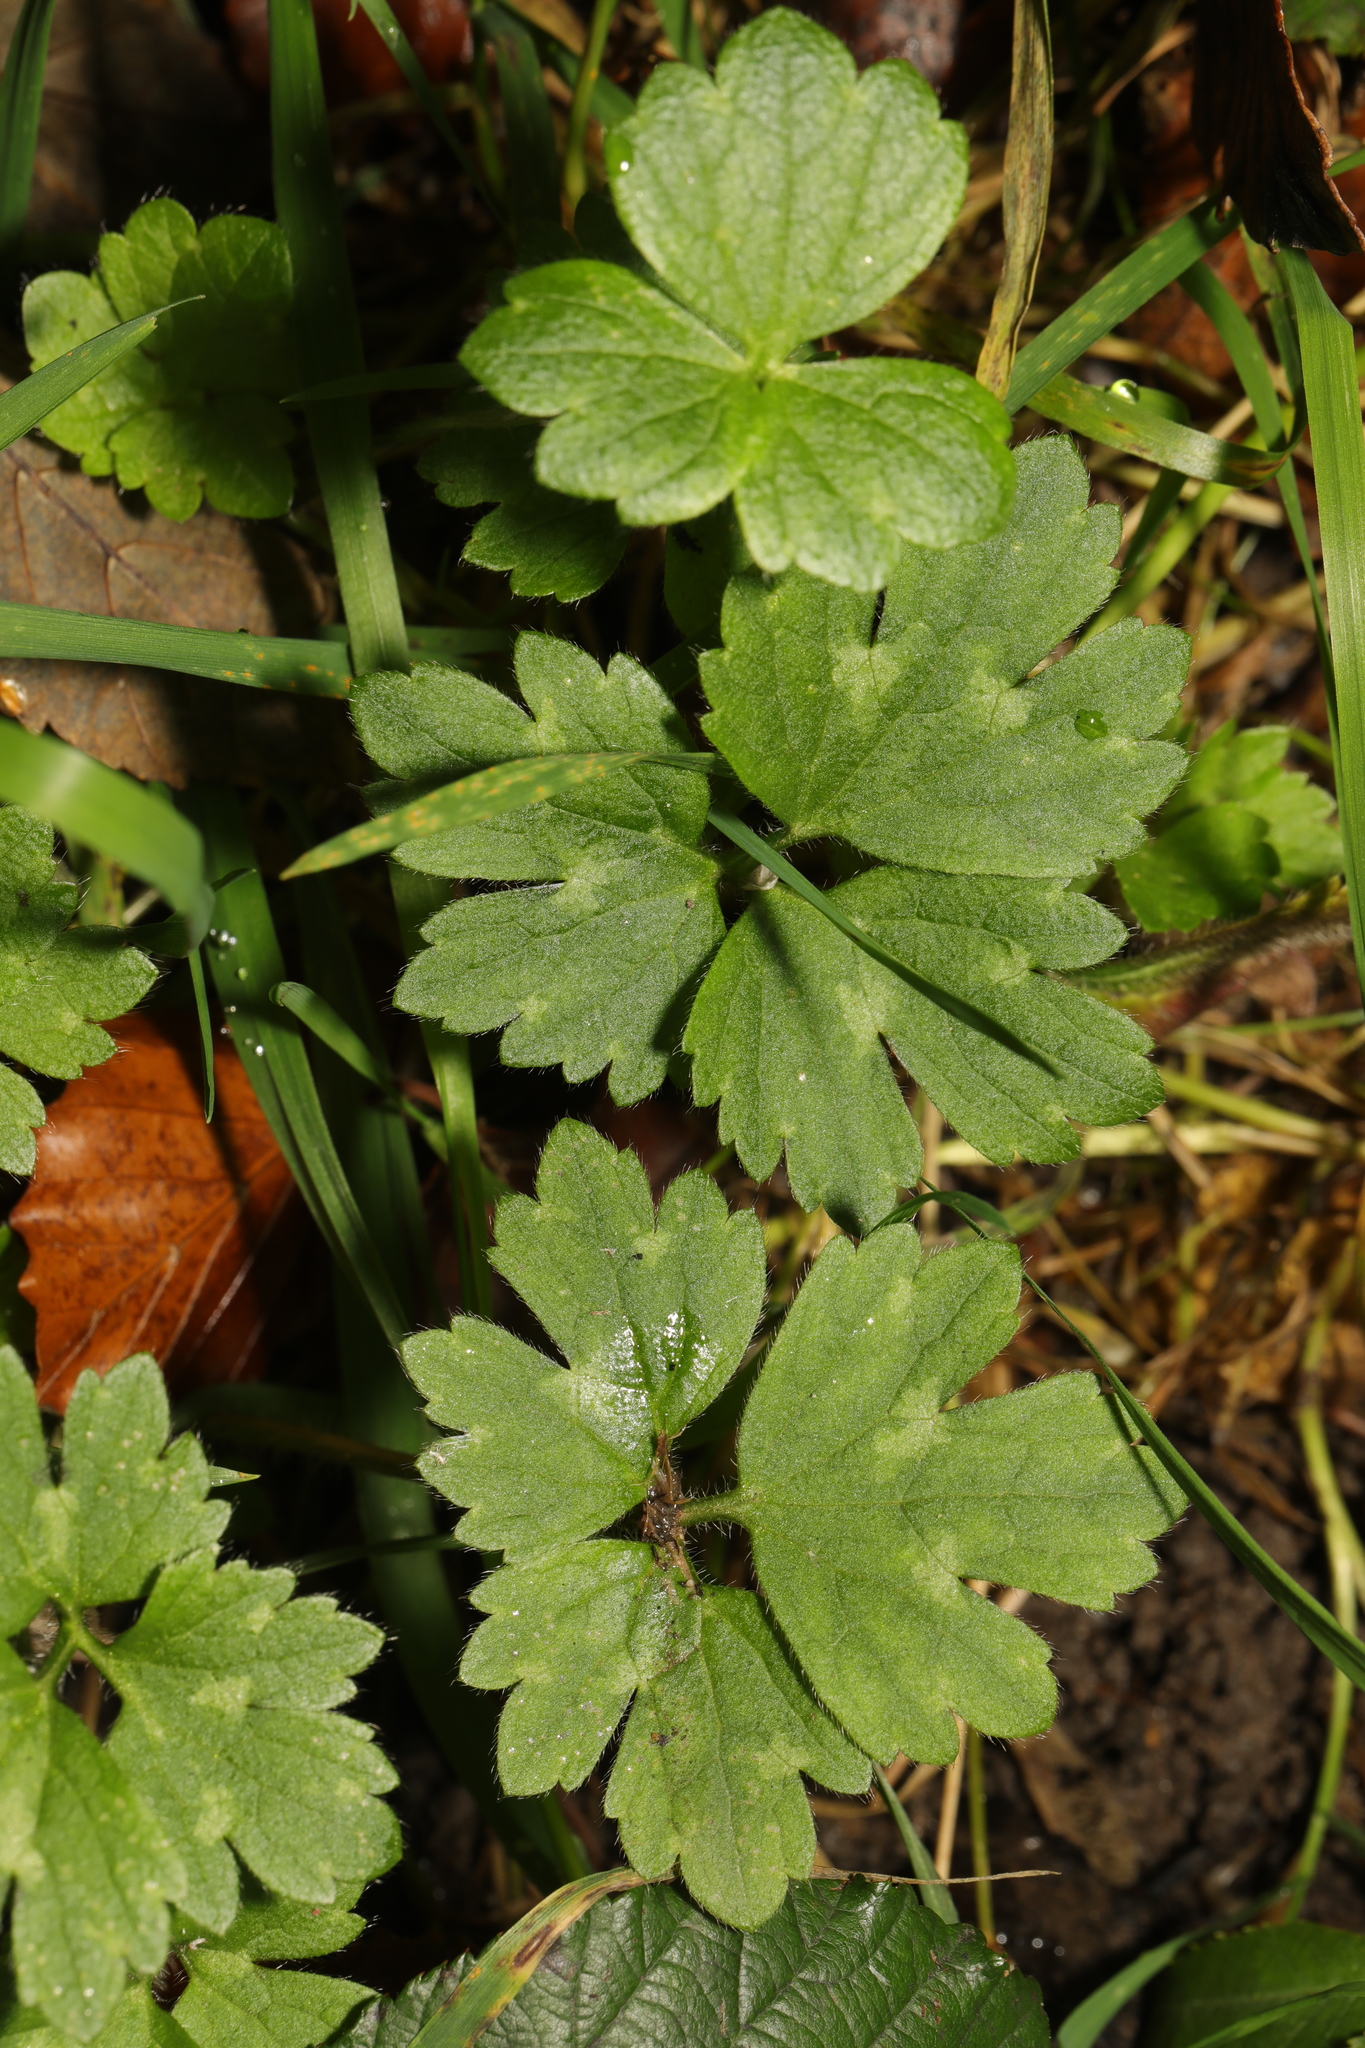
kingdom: Plantae
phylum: Tracheophyta
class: Magnoliopsida
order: Ranunculales
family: Ranunculaceae
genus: Ranunculus
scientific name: Ranunculus repens
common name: Creeping buttercup
